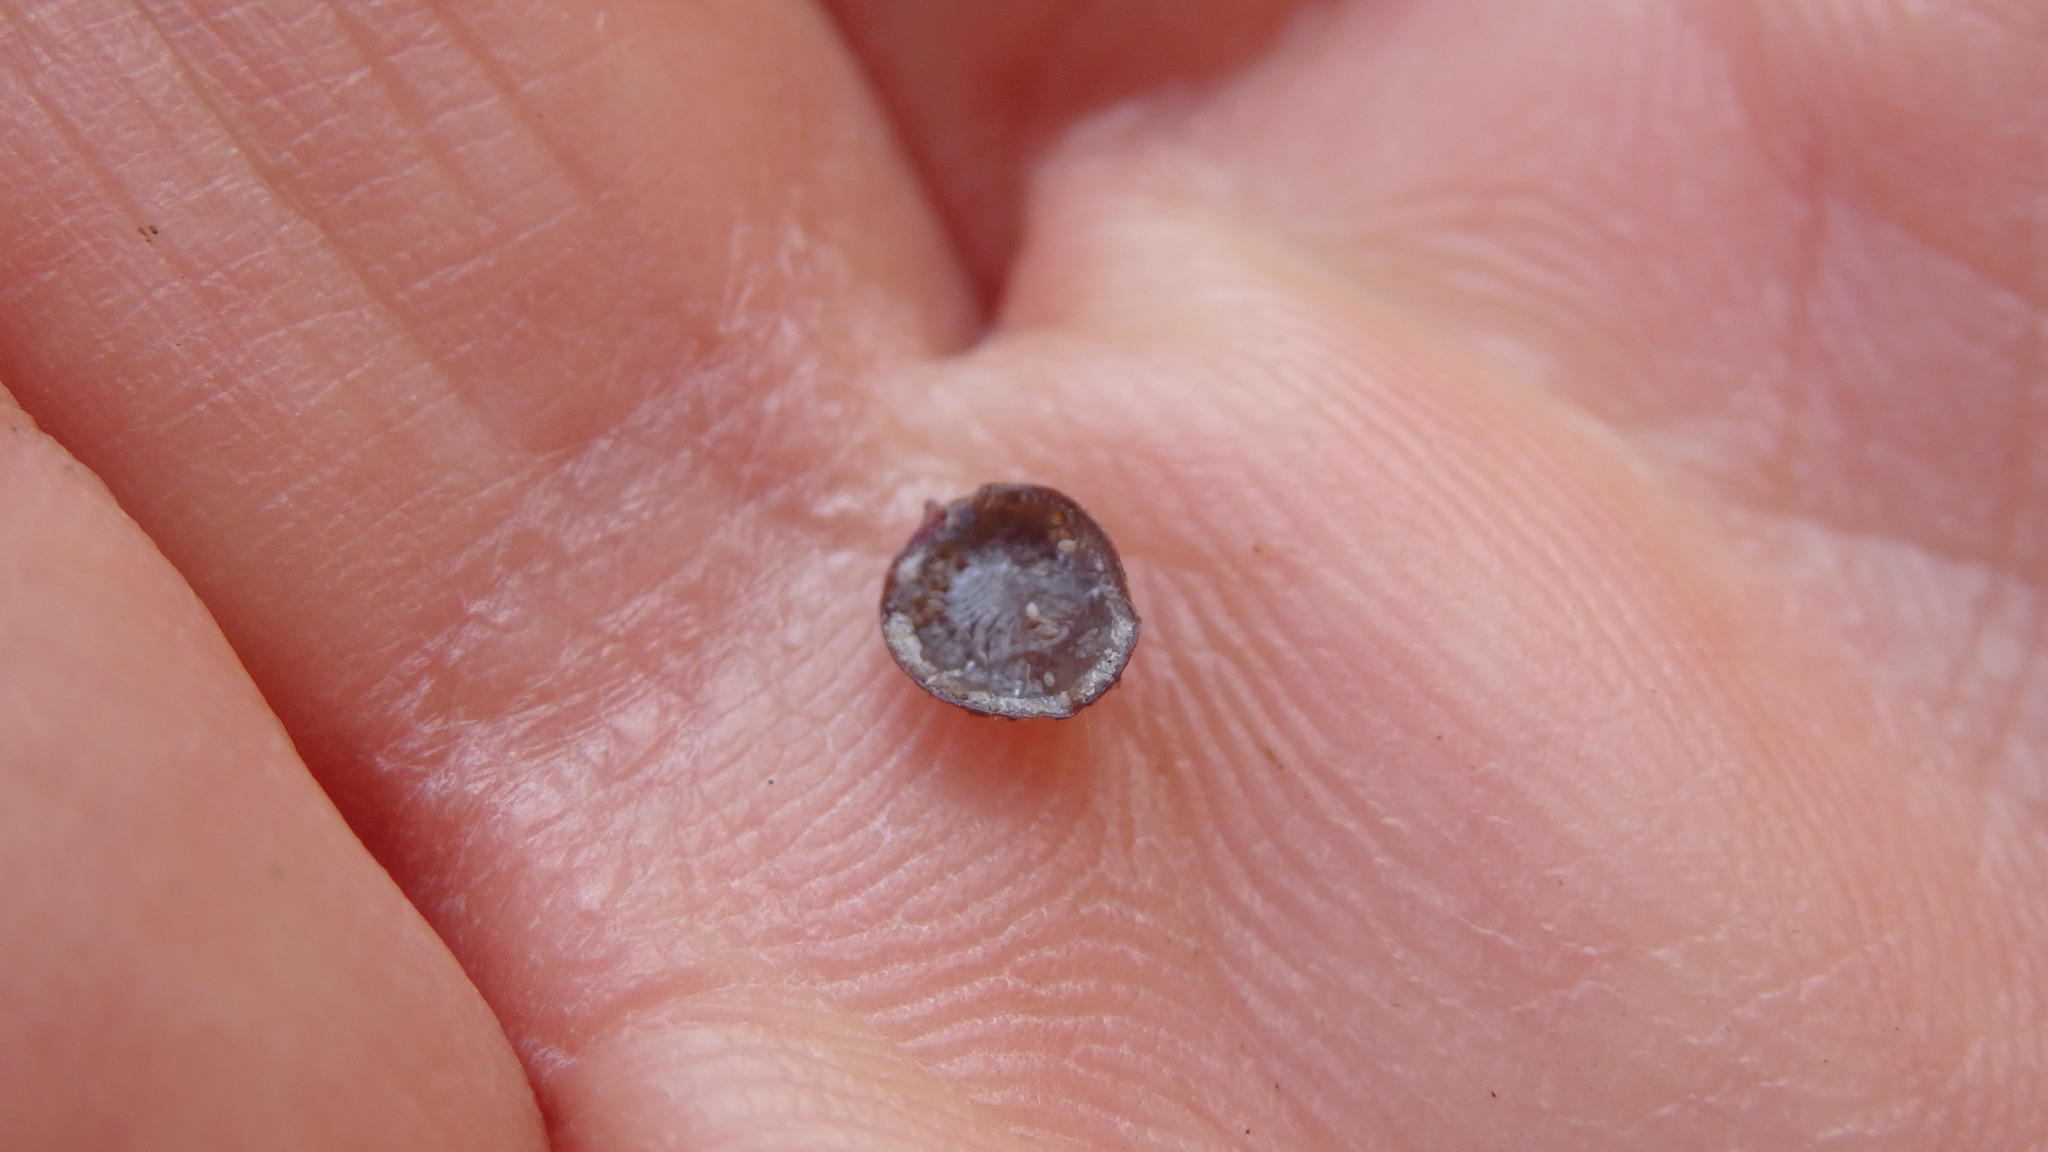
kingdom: Animalia
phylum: Arthropoda
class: Insecta
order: Hemiptera
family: Coccidae
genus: Saissetia
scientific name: Saissetia oleae
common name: Black scale
